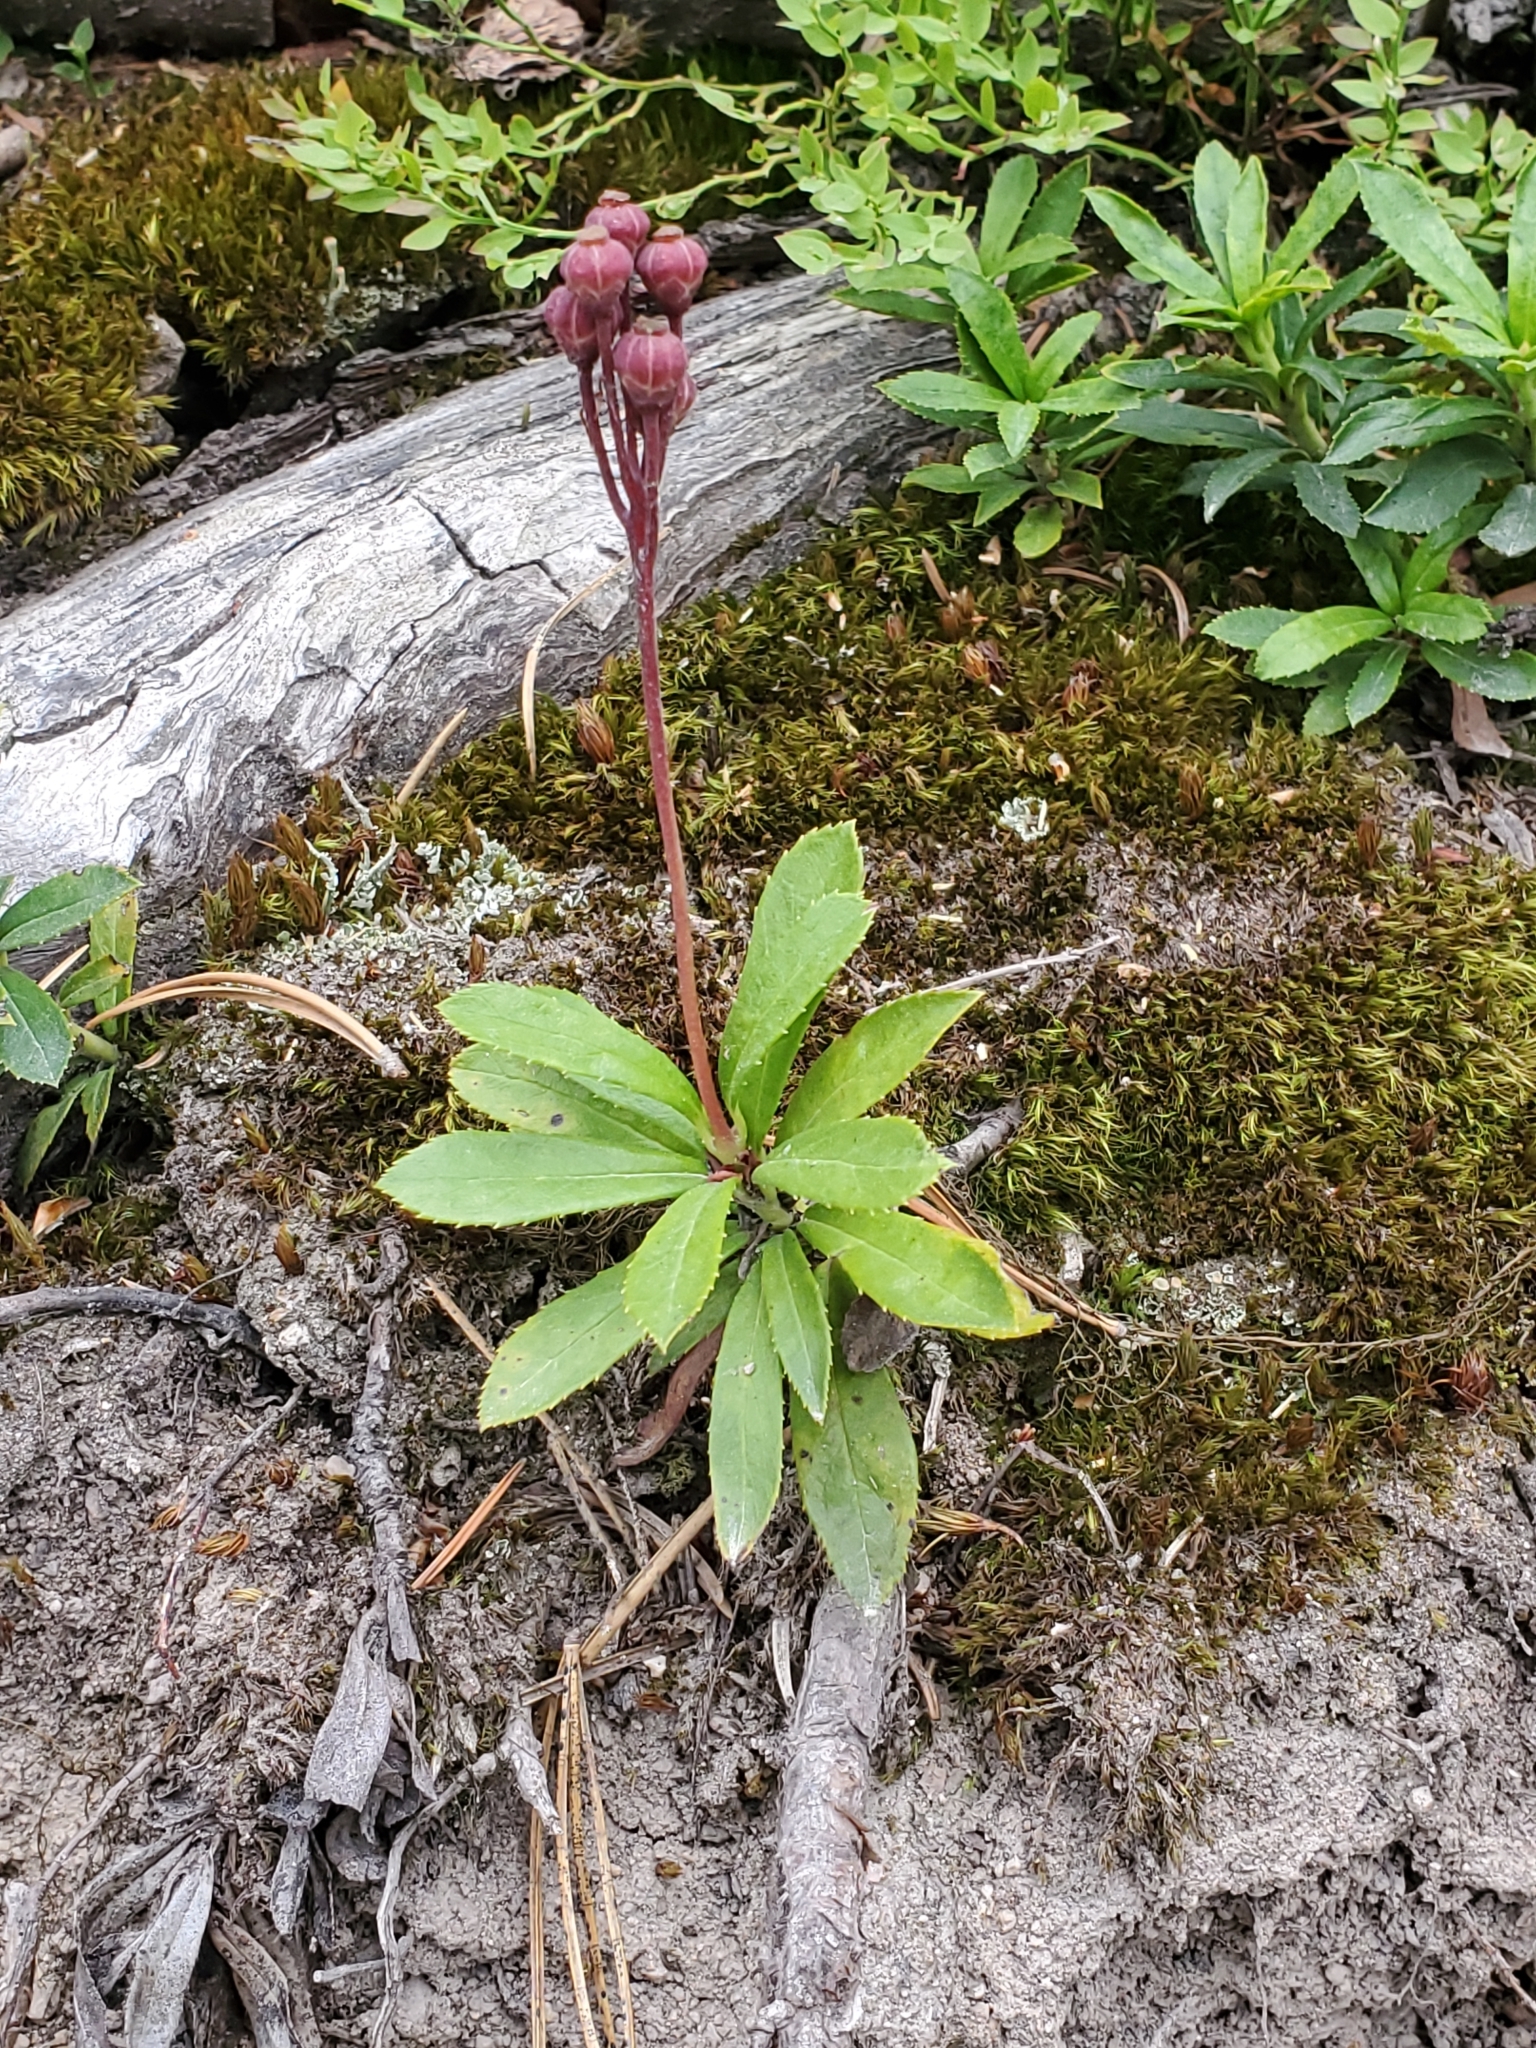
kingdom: Plantae
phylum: Tracheophyta
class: Magnoliopsida
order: Ericales
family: Ericaceae
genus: Chimaphila
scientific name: Chimaphila umbellata
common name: Pipsissewa
